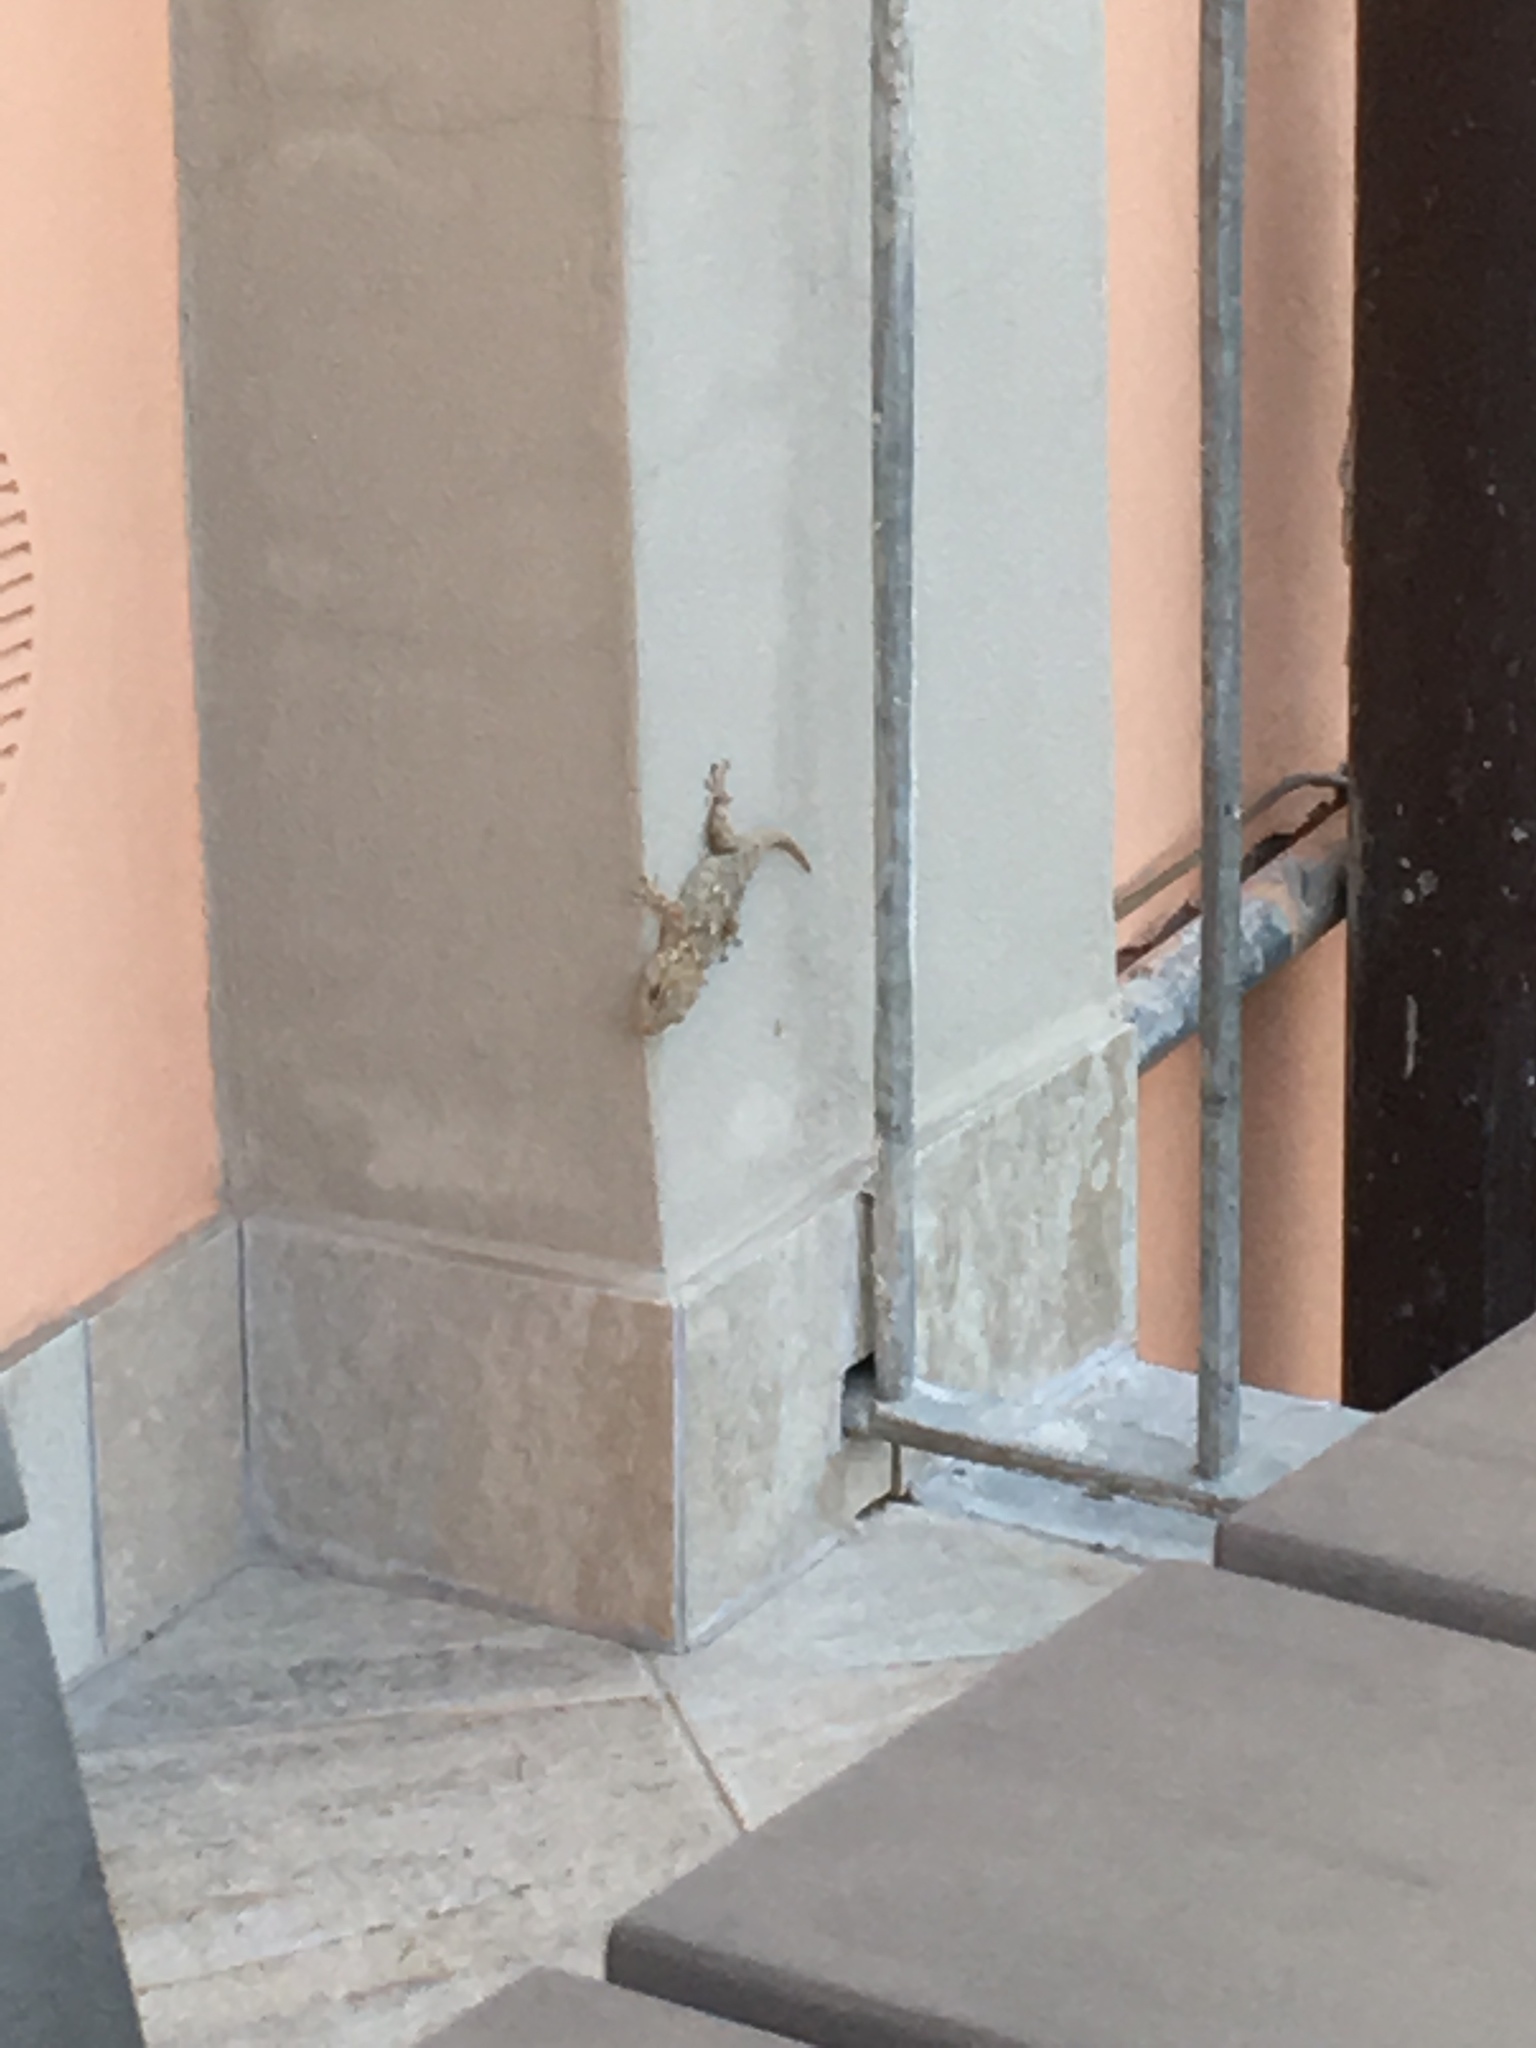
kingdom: Animalia
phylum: Chordata
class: Squamata
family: Phyllodactylidae
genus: Tarentola
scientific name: Tarentola mauritanica
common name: Moorish gecko
